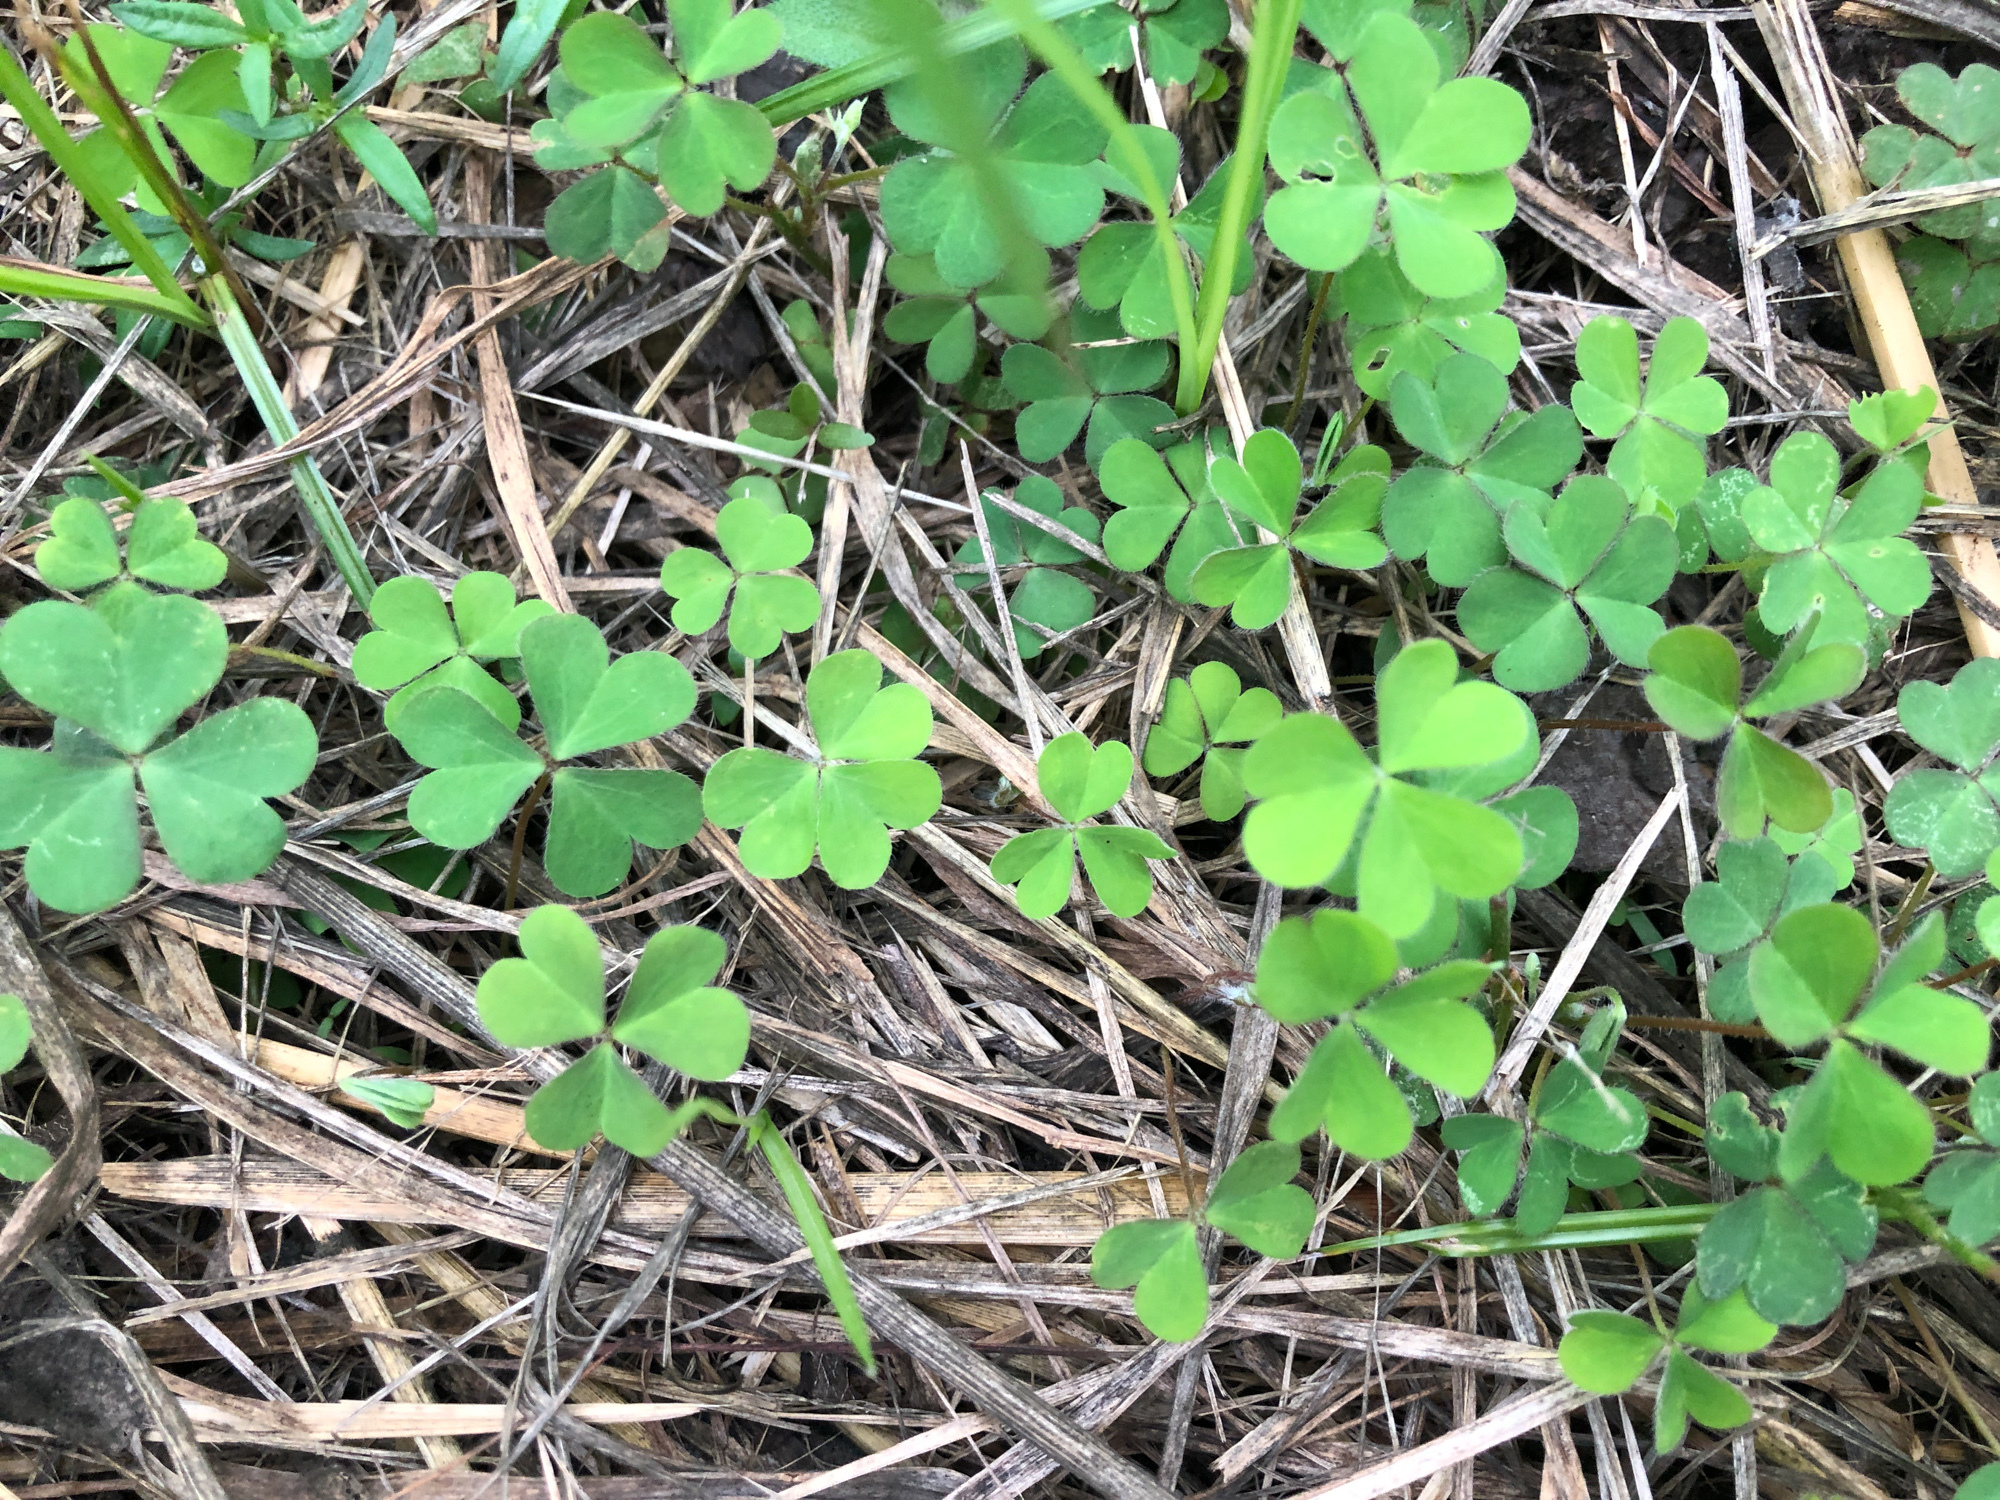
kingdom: Plantae
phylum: Tracheophyta
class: Magnoliopsida
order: Oxalidales
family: Oxalidaceae
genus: Oxalis
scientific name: Oxalis corniculata
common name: Procumbent yellow-sorrel
